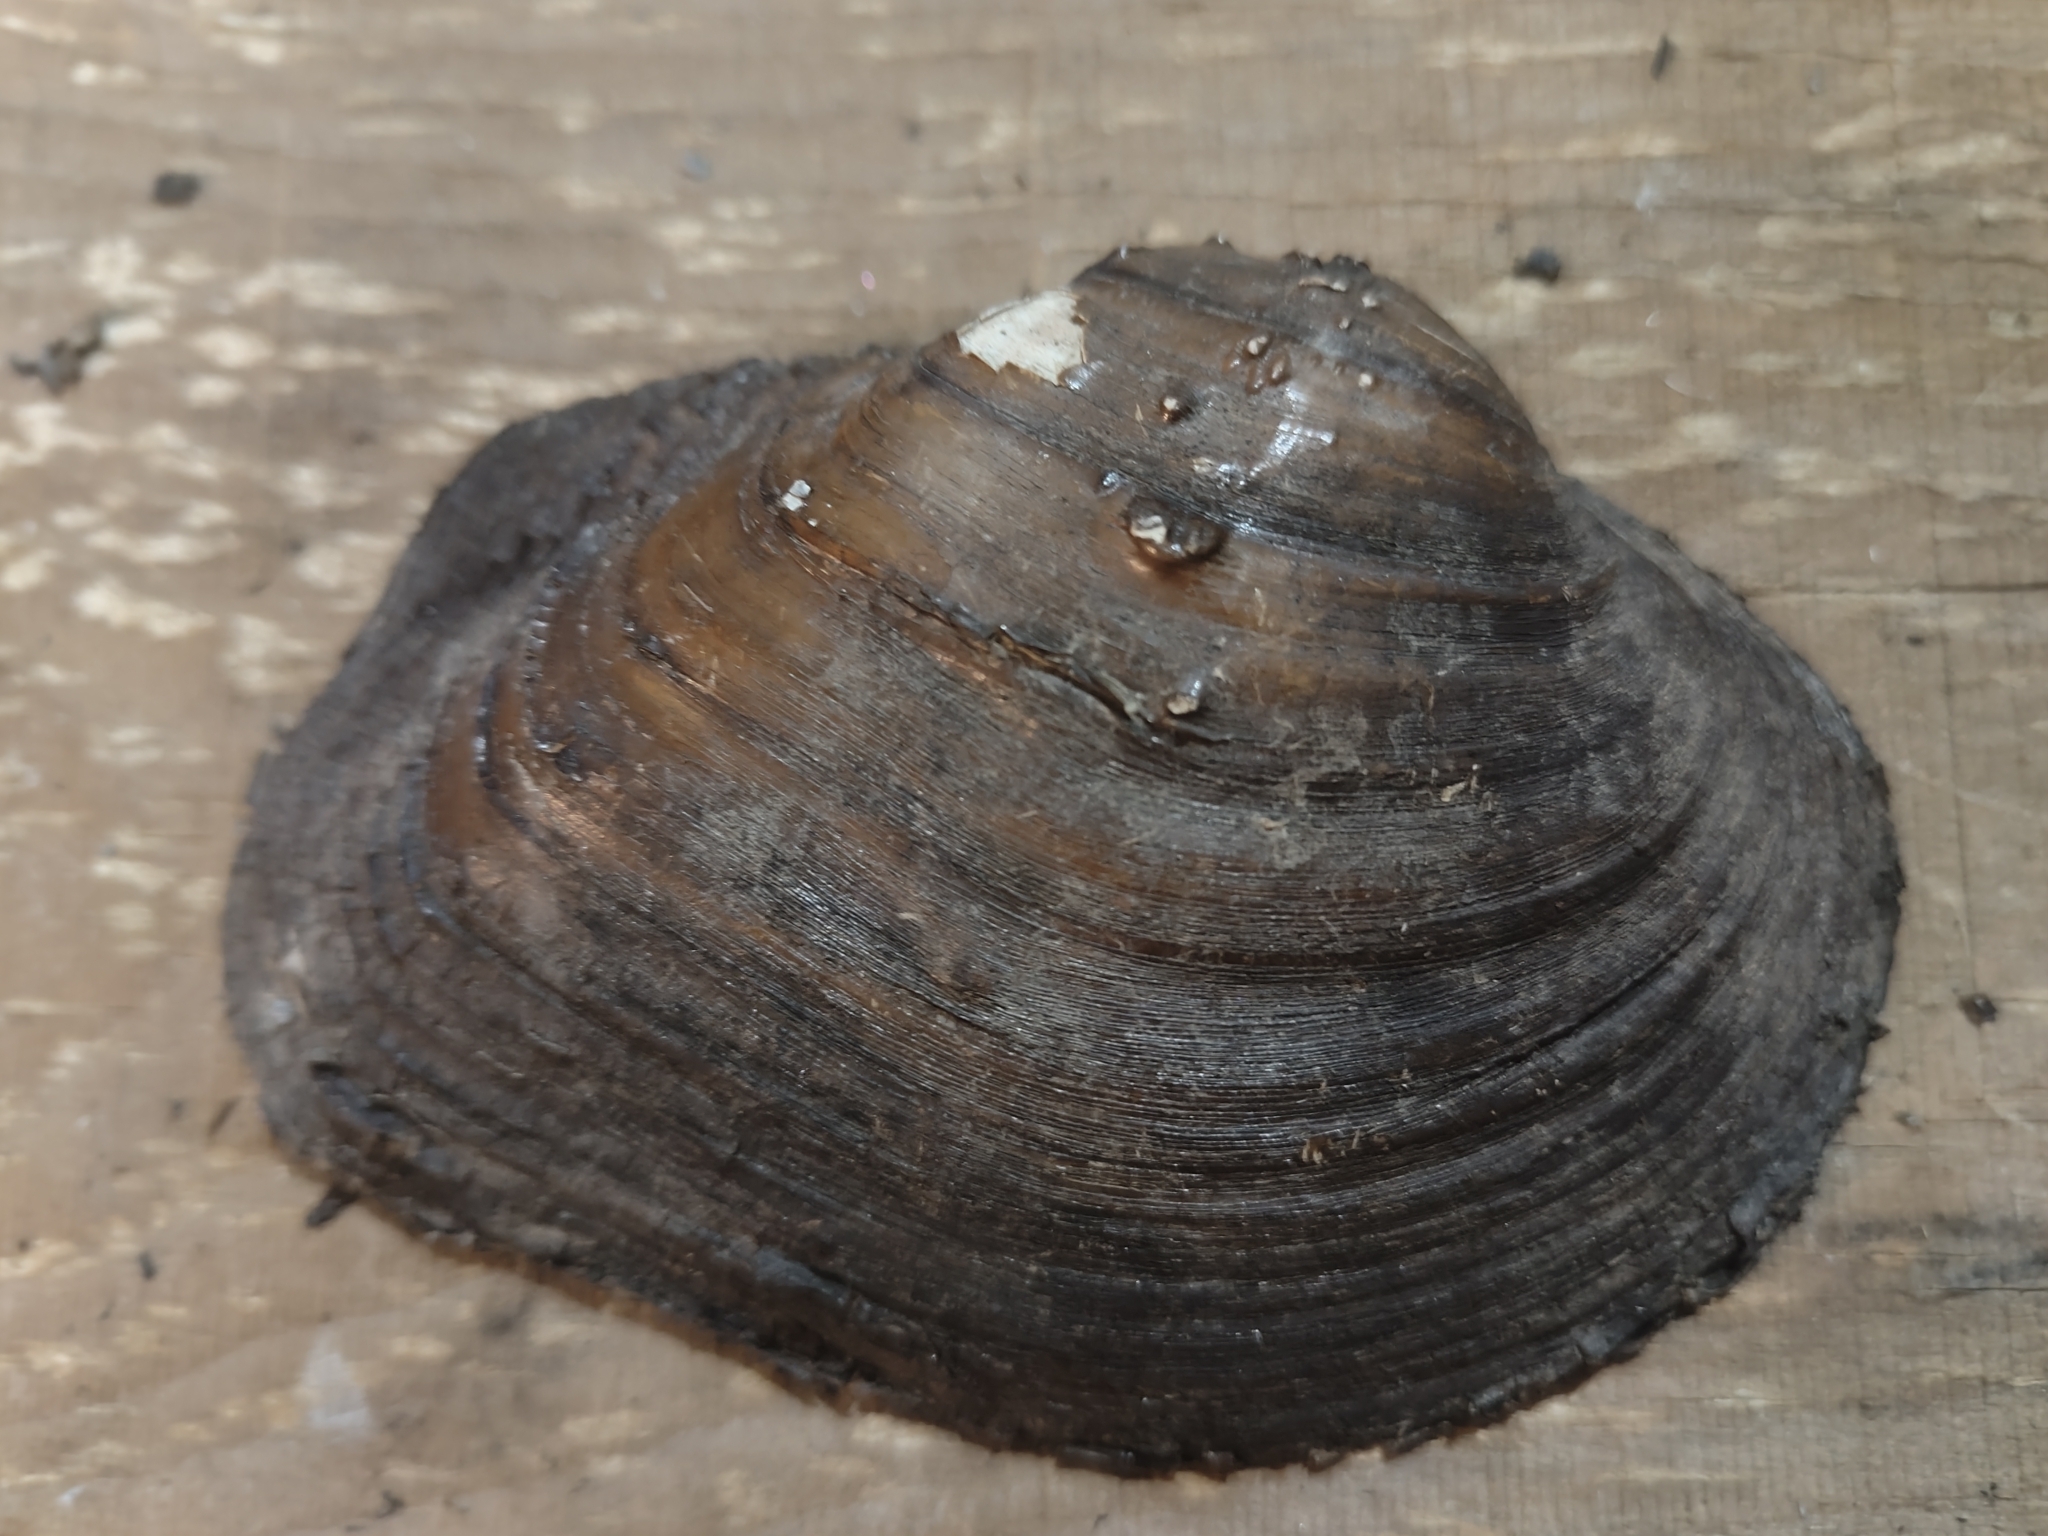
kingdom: Animalia
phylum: Mollusca
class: Bivalvia
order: Unionida
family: Unionidae
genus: Quadrula
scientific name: Quadrula quadrula
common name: Mapleleaf
